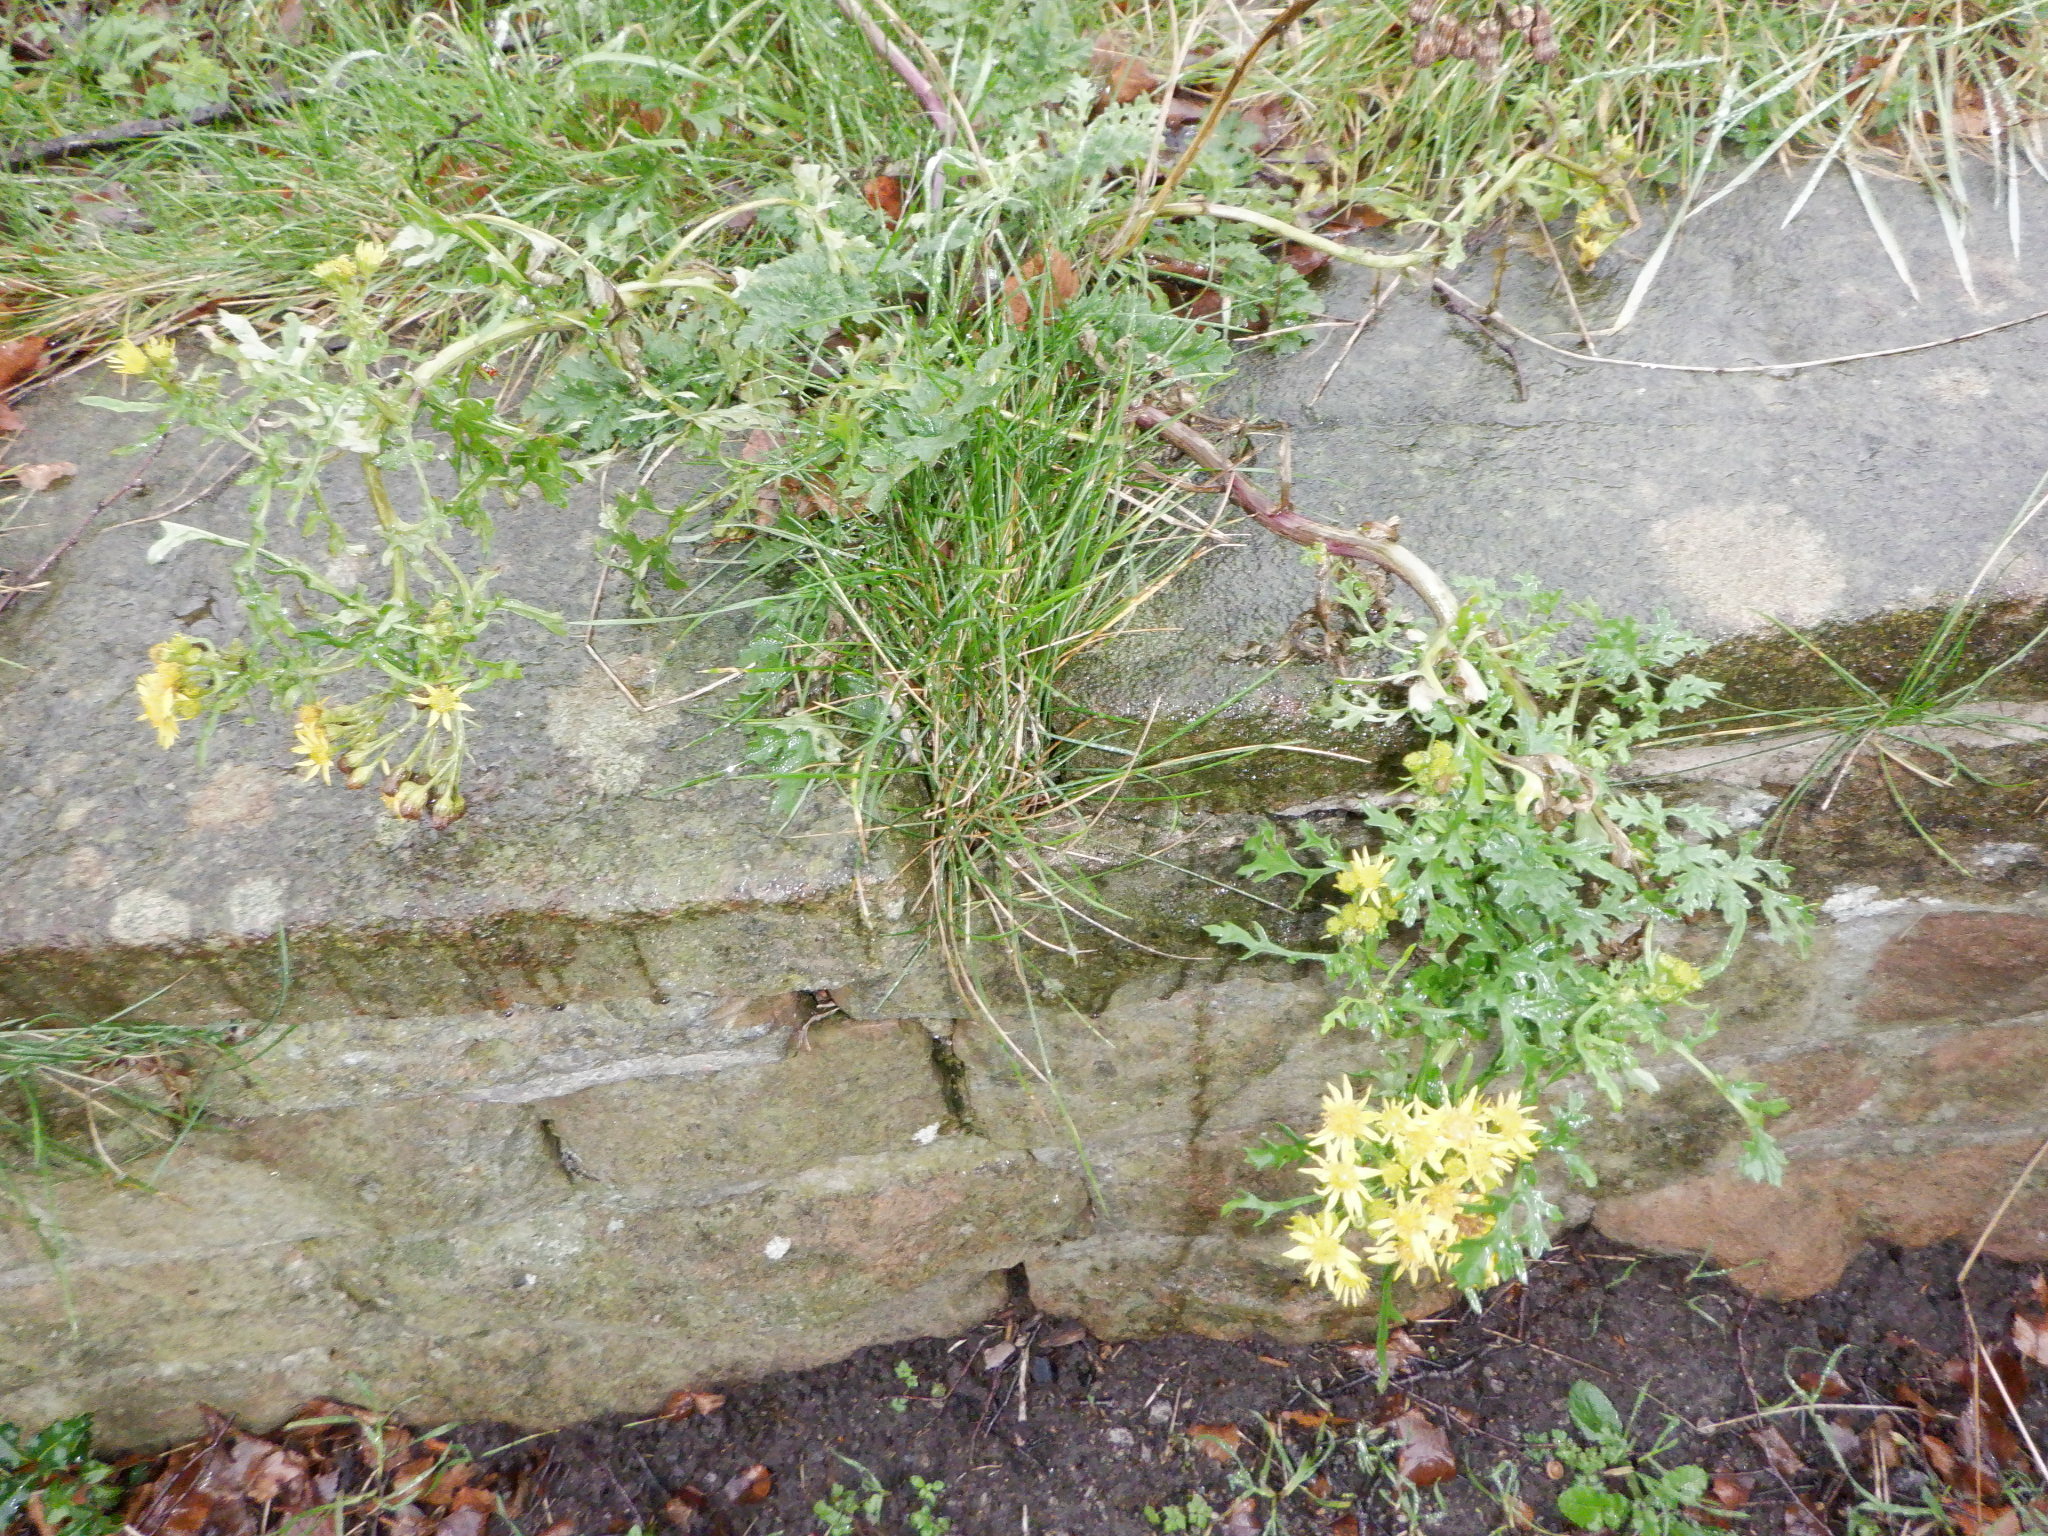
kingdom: Plantae
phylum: Tracheophyta
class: Magnoliopsida
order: Asterales
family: Asteraceae
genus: Jacobaea
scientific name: Jacobaea vulgaris
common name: Stinking willie
